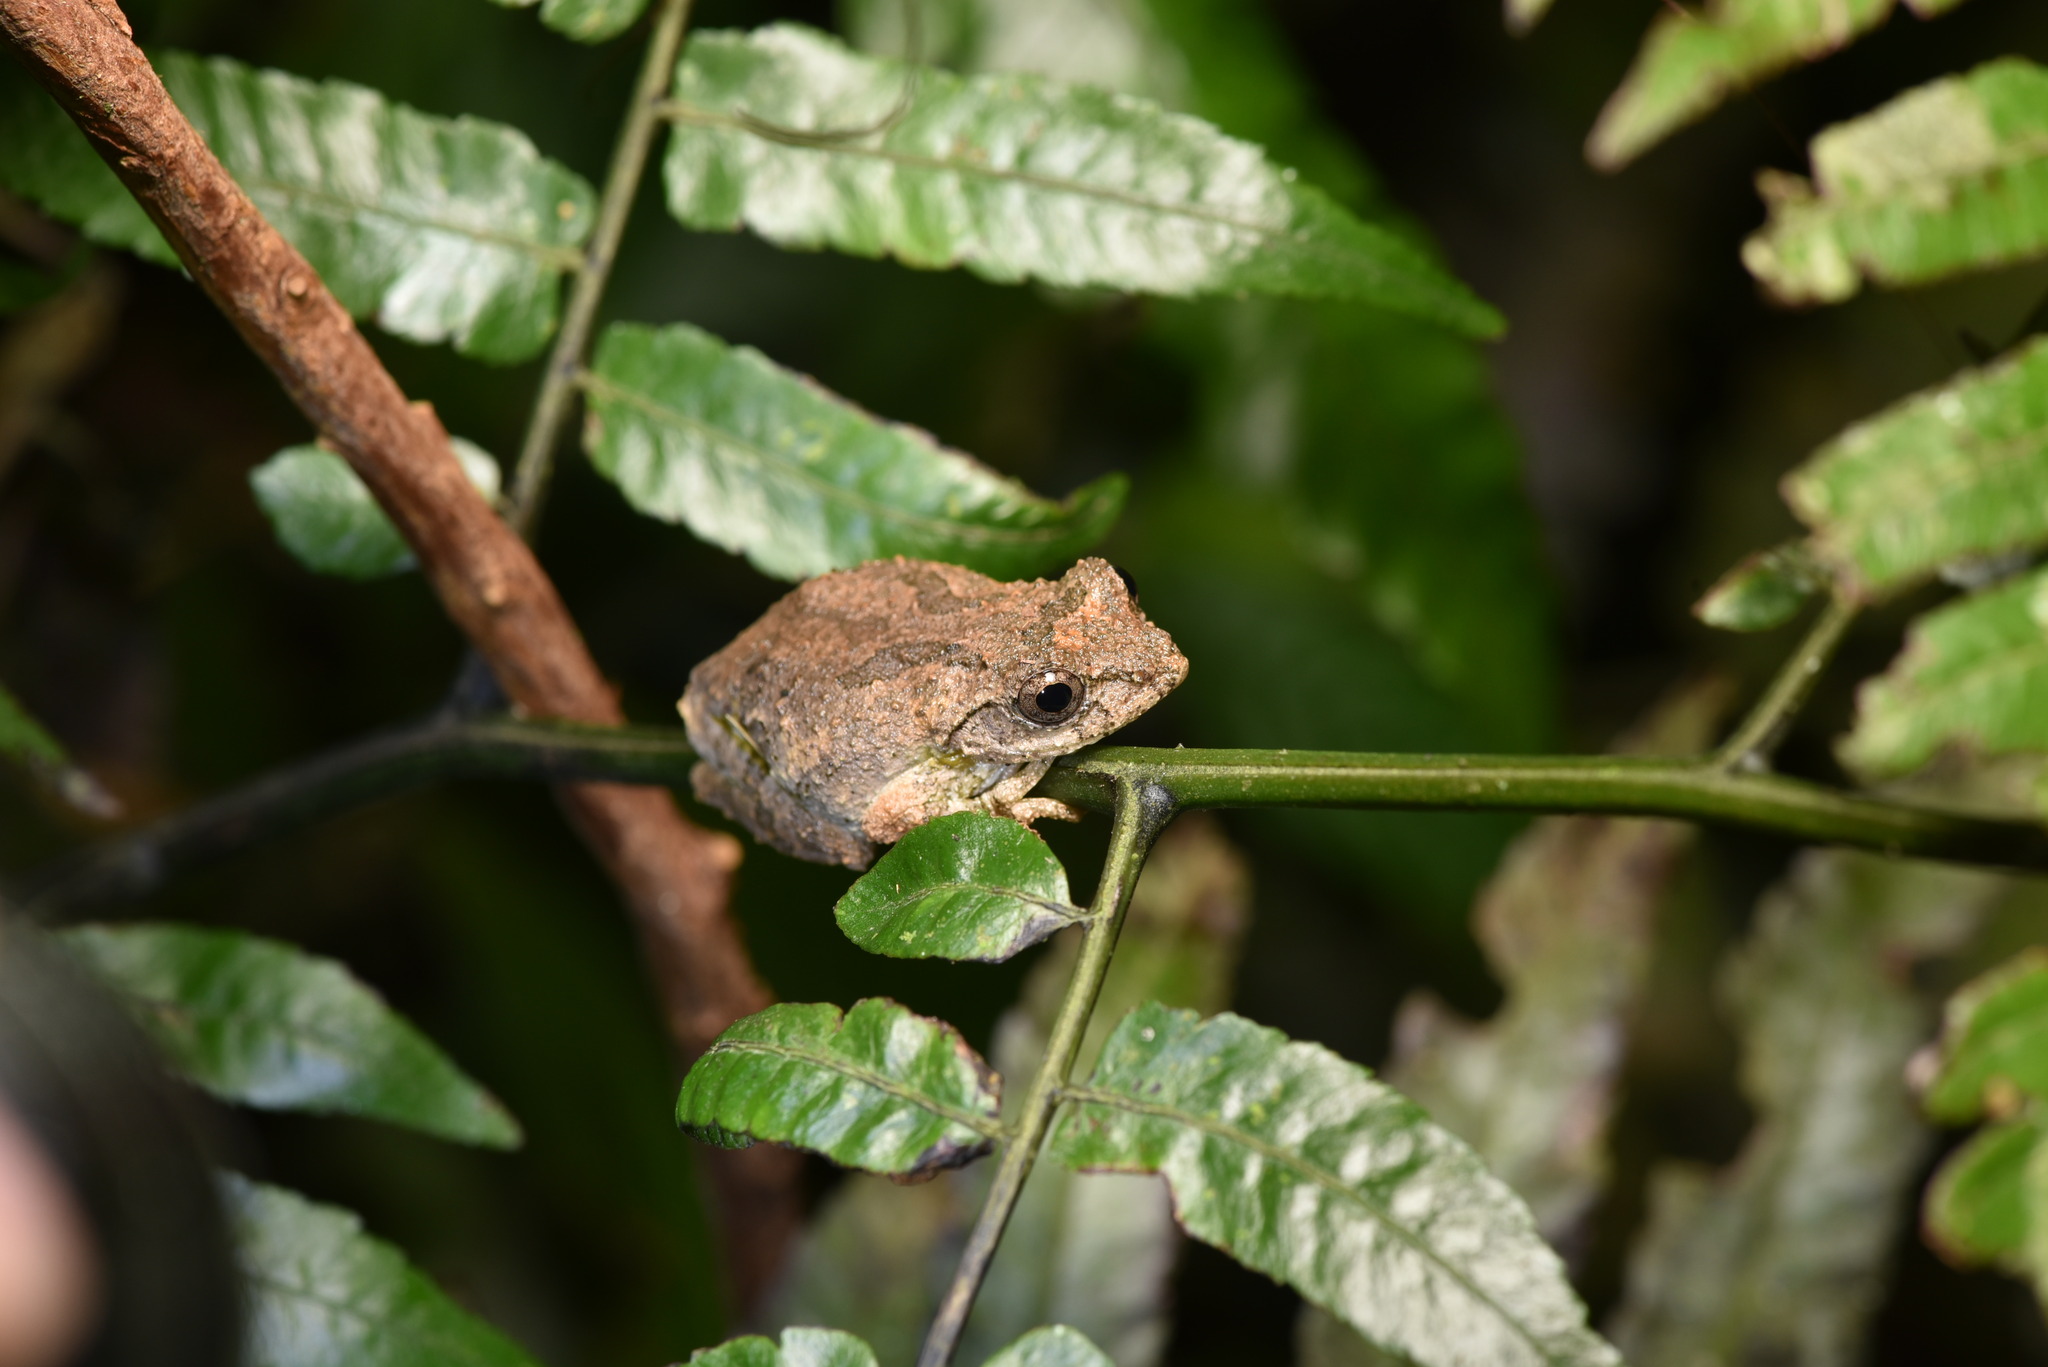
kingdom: Animalia
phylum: Chordata
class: Amphibia
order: Anura
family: Rhacophoridae
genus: Kurixalus
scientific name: Kurixalus idiootocus
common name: Temple treefrog
